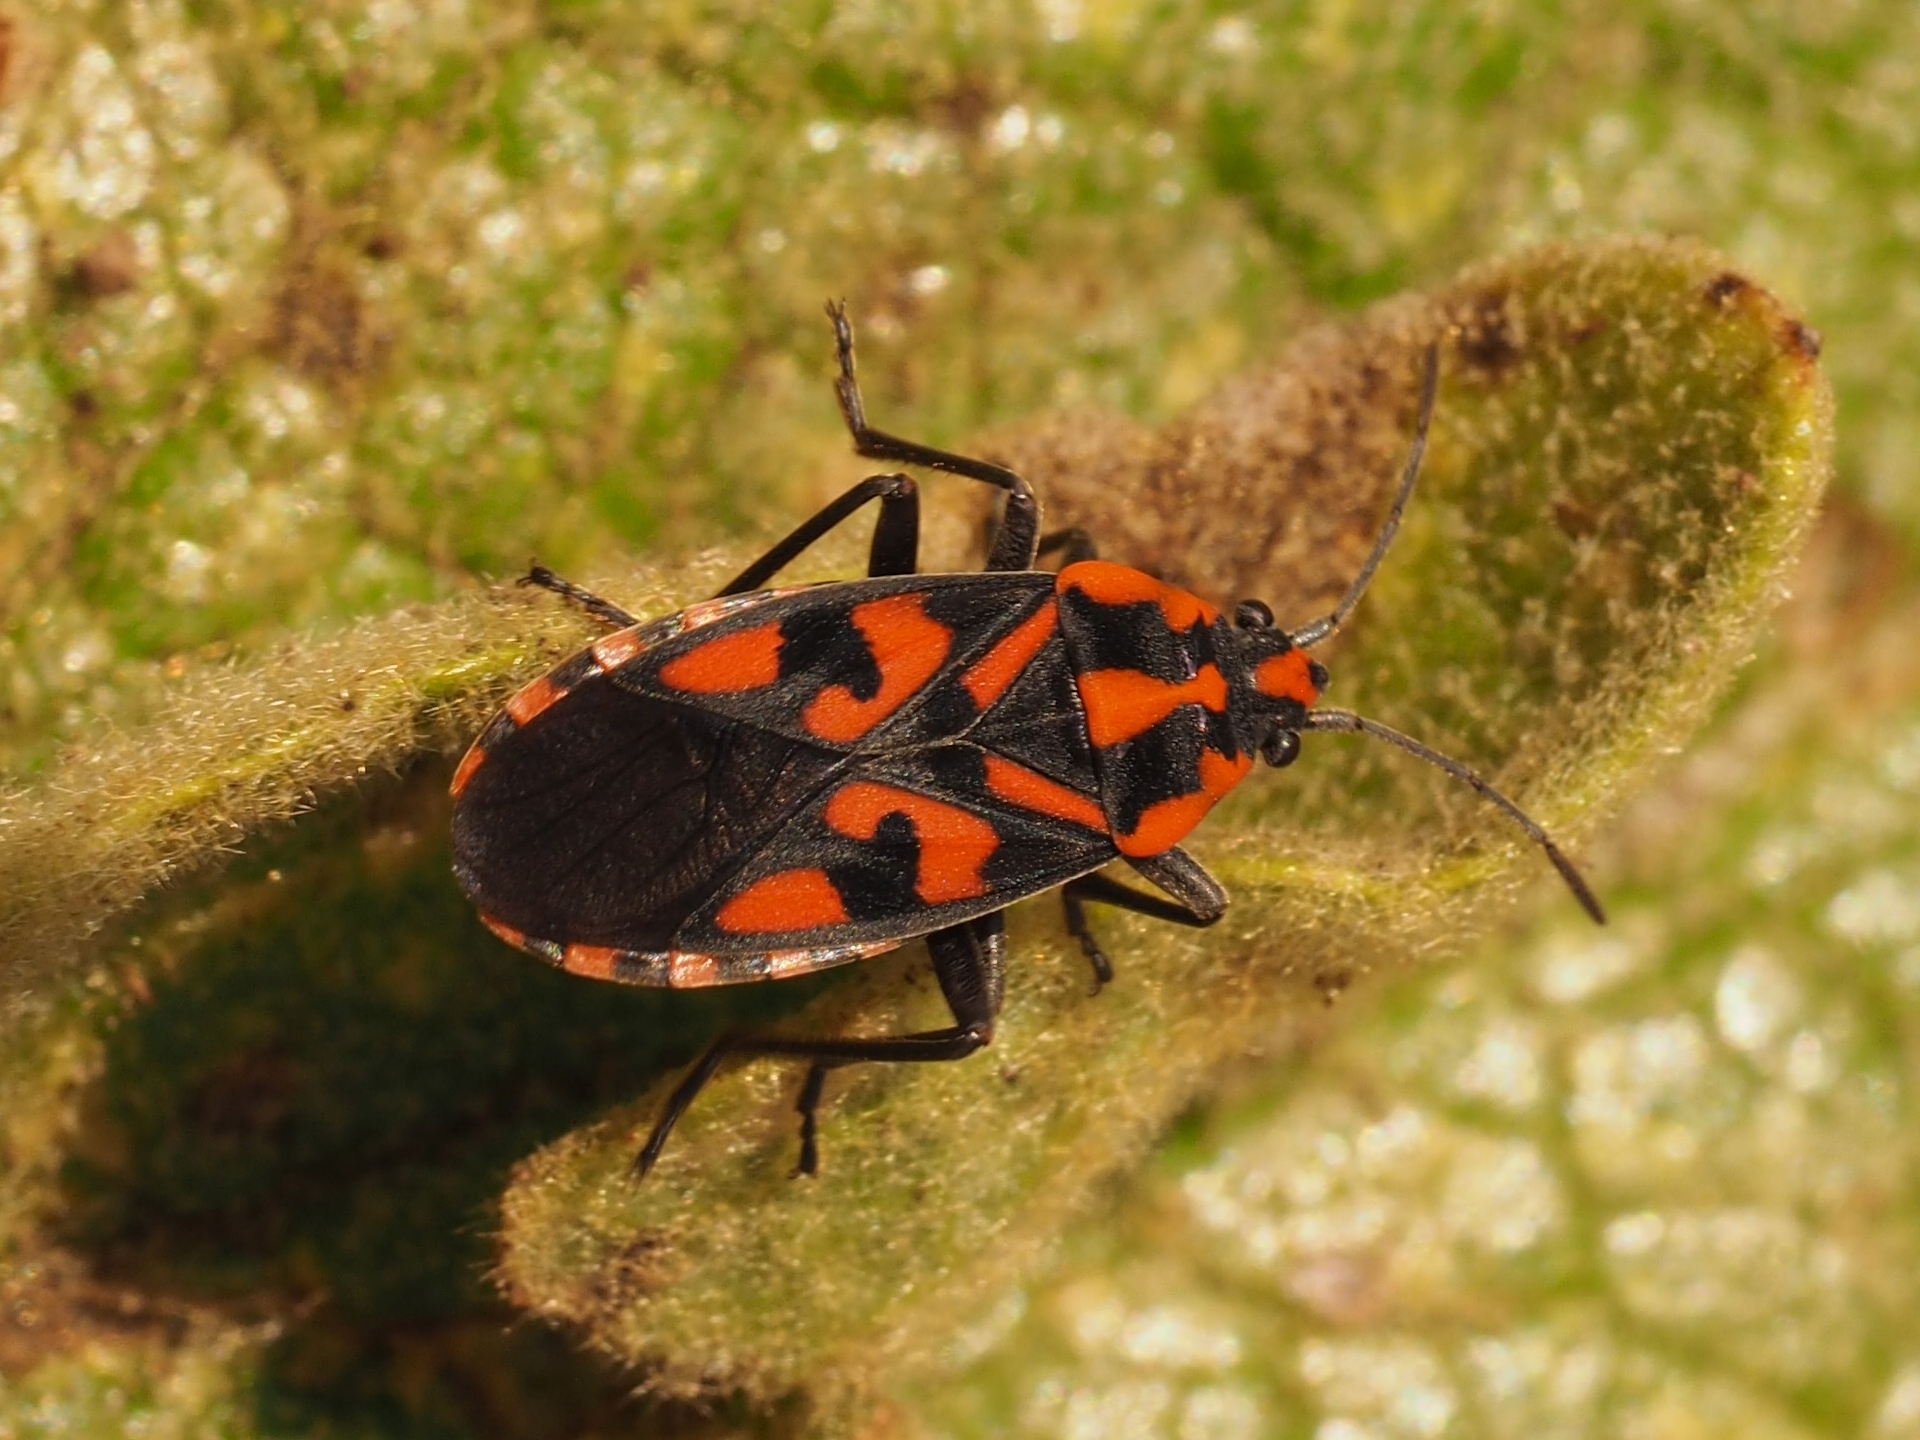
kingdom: Animalia
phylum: Arthropoda
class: Insecta
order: Hemiptera
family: Lygaeidae
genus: Spilostethus
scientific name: Spilostethus saxatilis
